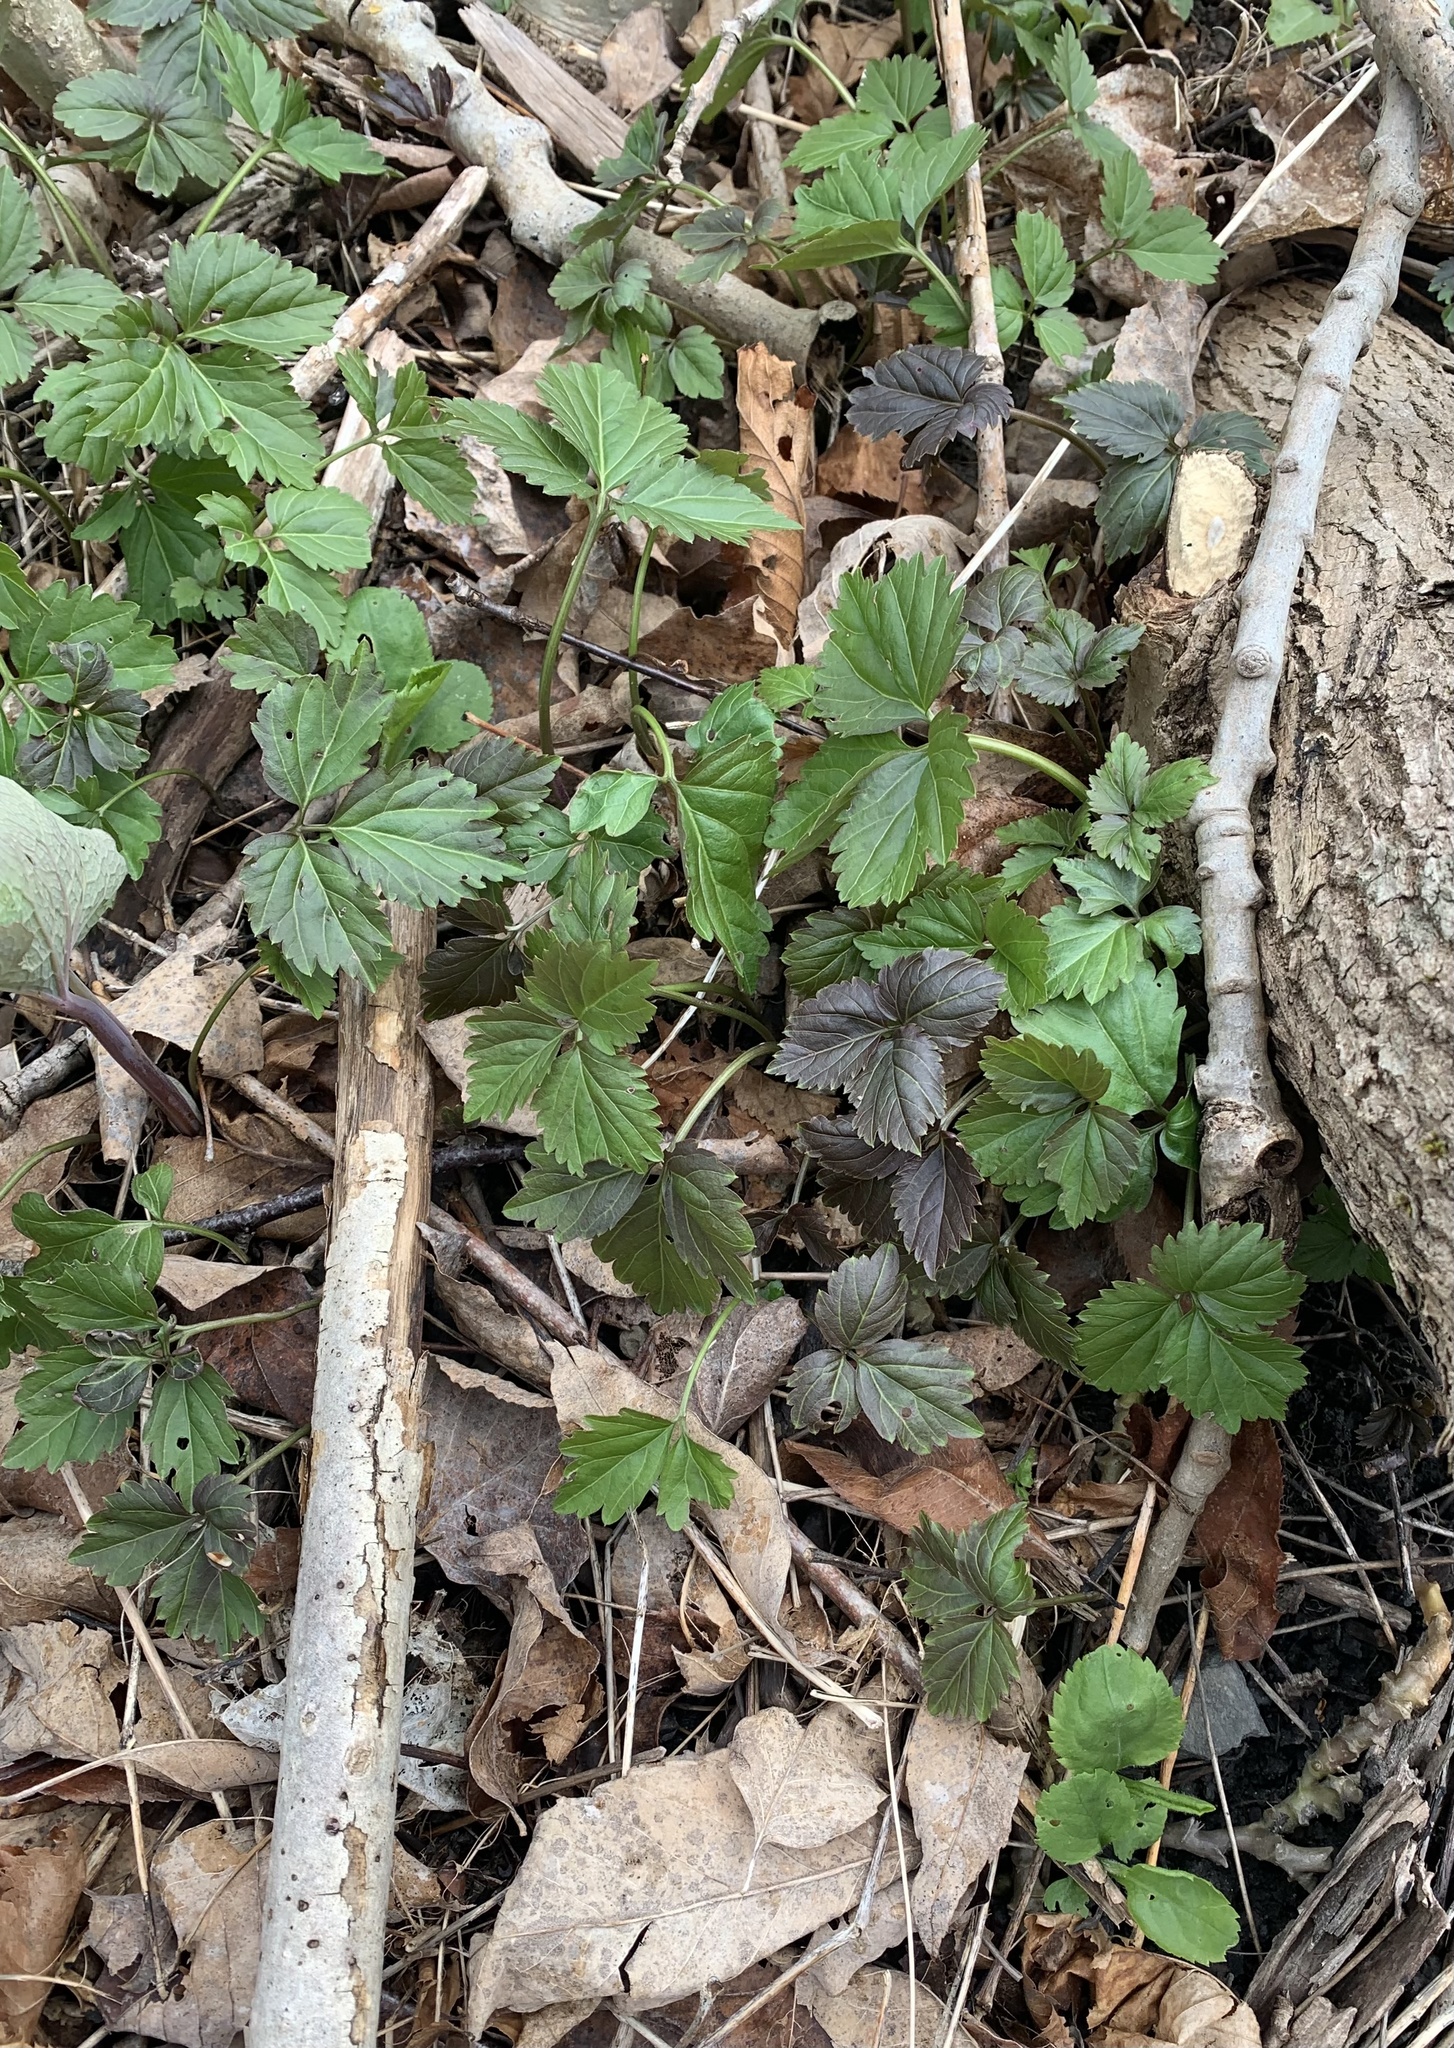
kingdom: Plantae
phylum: Tracheophyta
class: Magnoliopsida
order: Brassicales
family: Brassicaceae
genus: Cardamine
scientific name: Cardamine diphylla
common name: Broad-leaved toothwort
